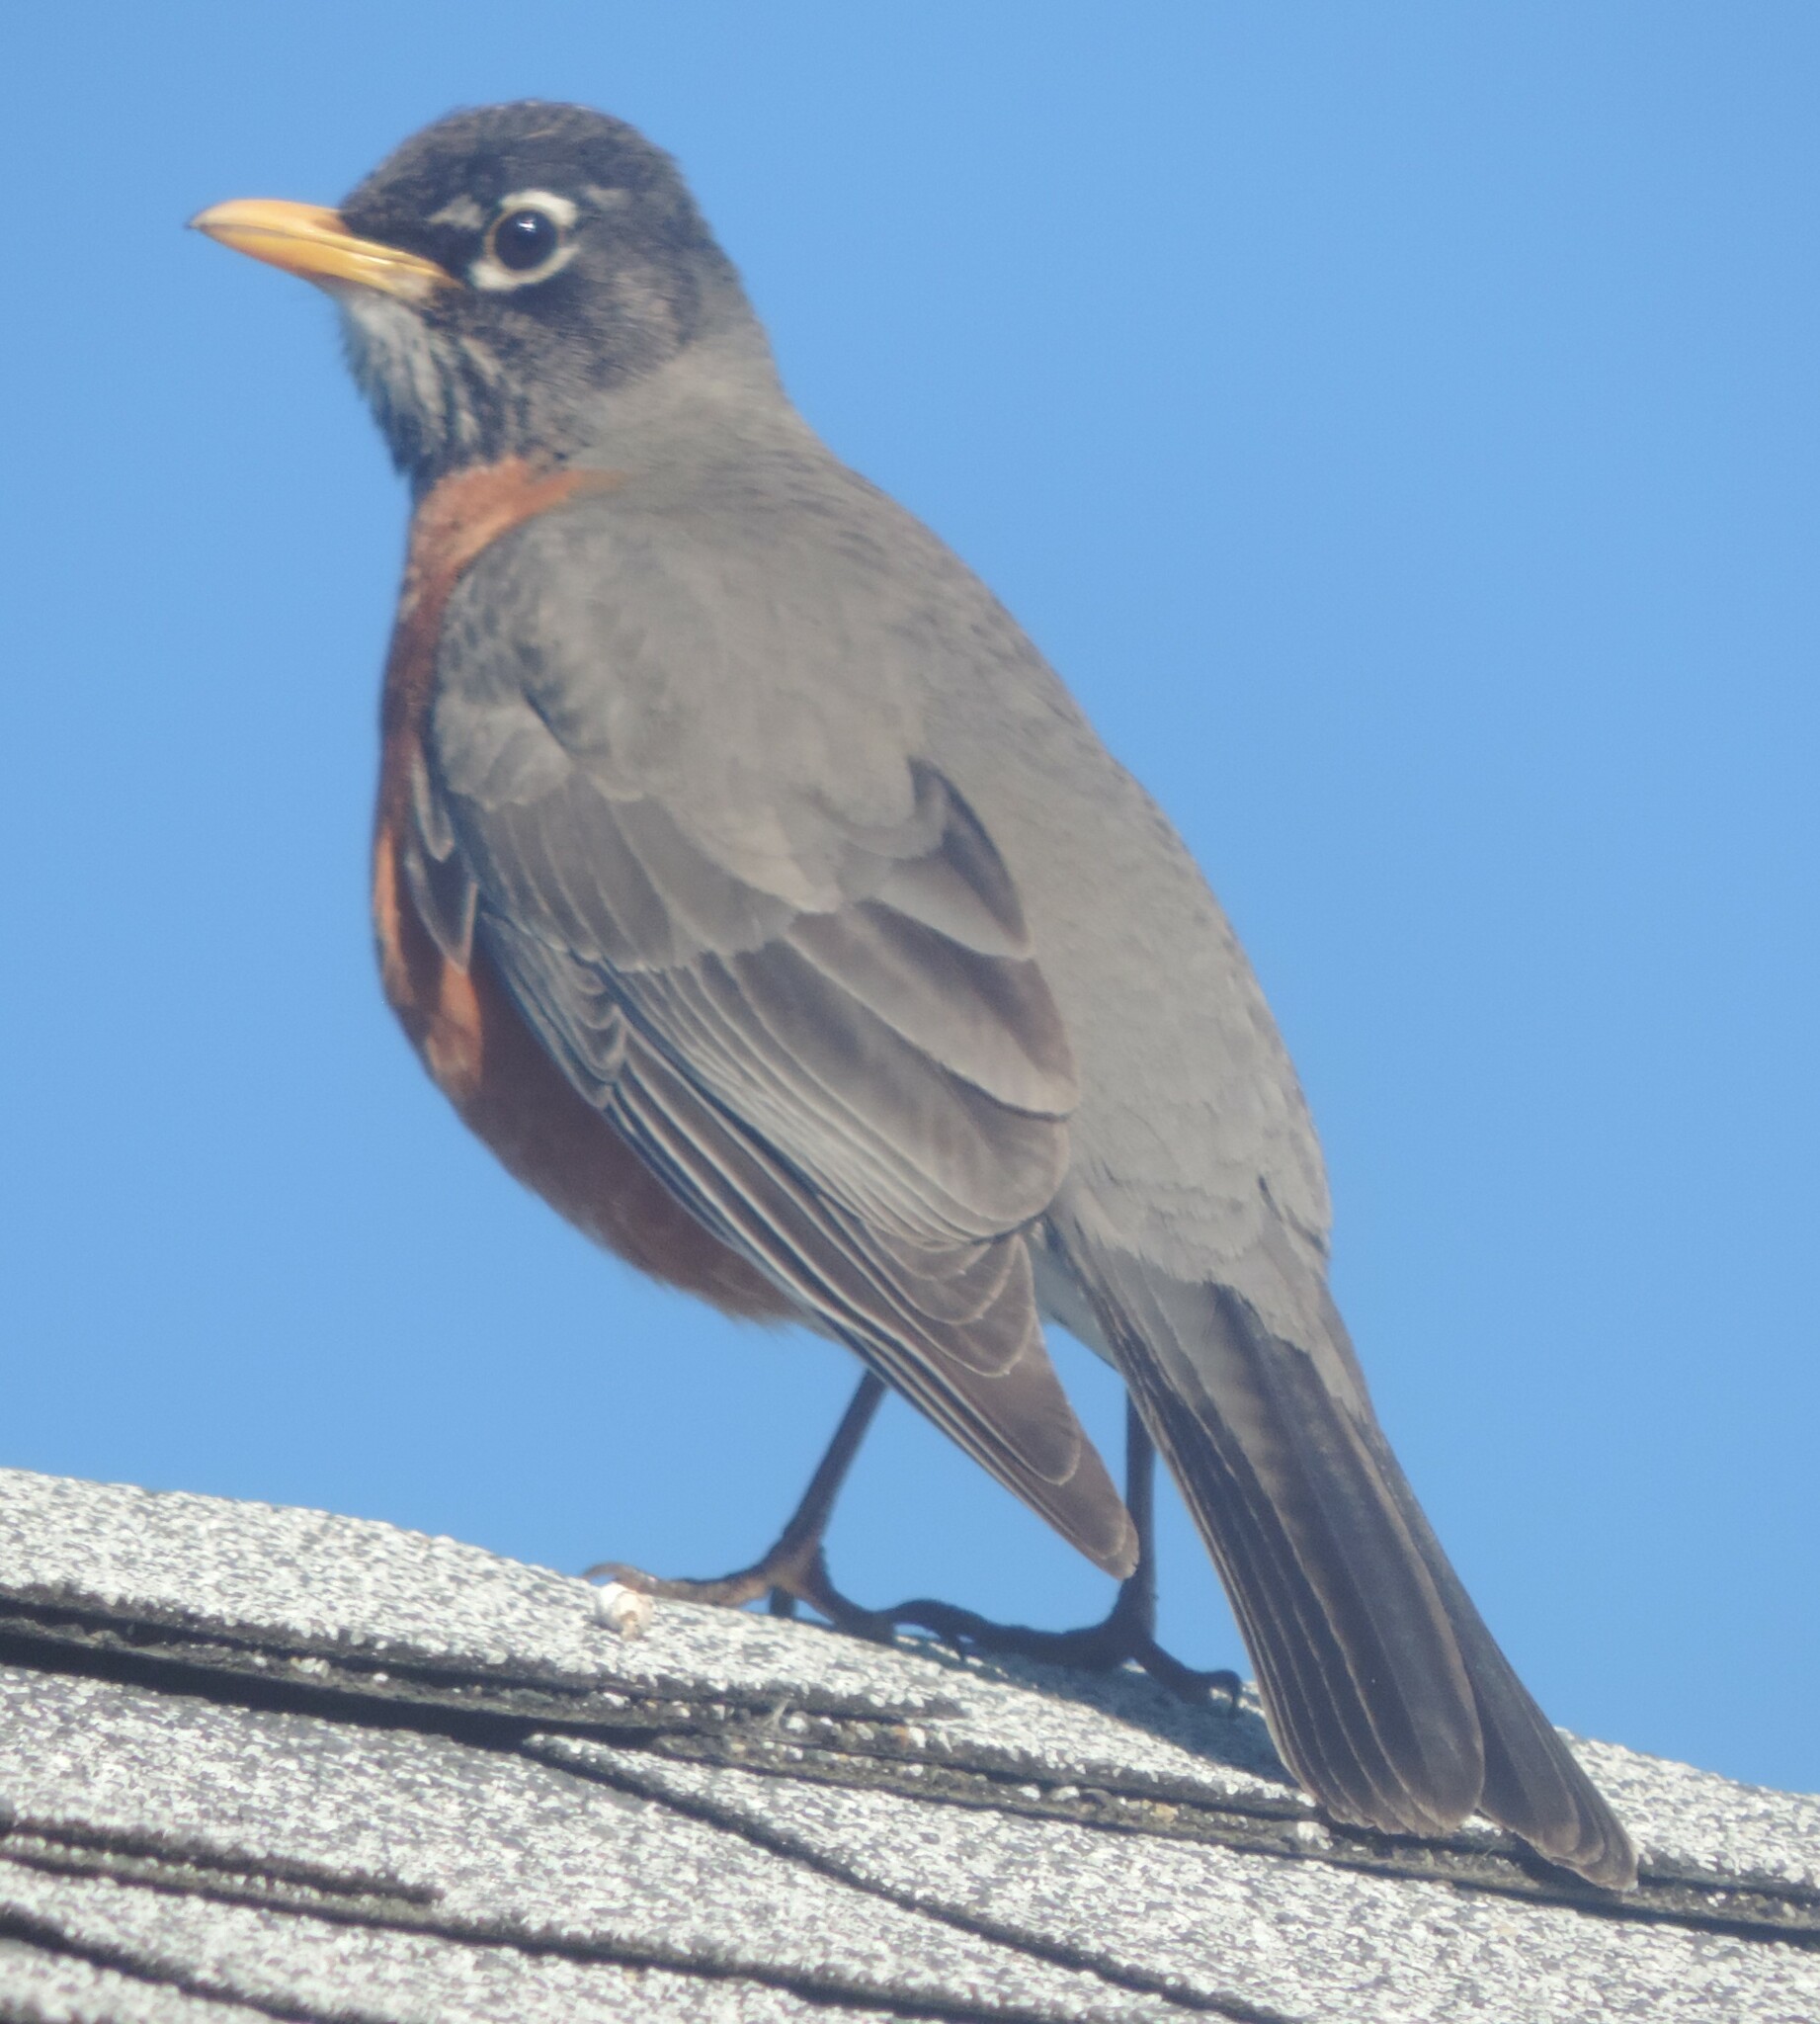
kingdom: Animalia
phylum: Chordata
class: Aves
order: Passeriformes
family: Turdidae
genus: Turdus
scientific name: Turdus migratorius
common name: American robin
